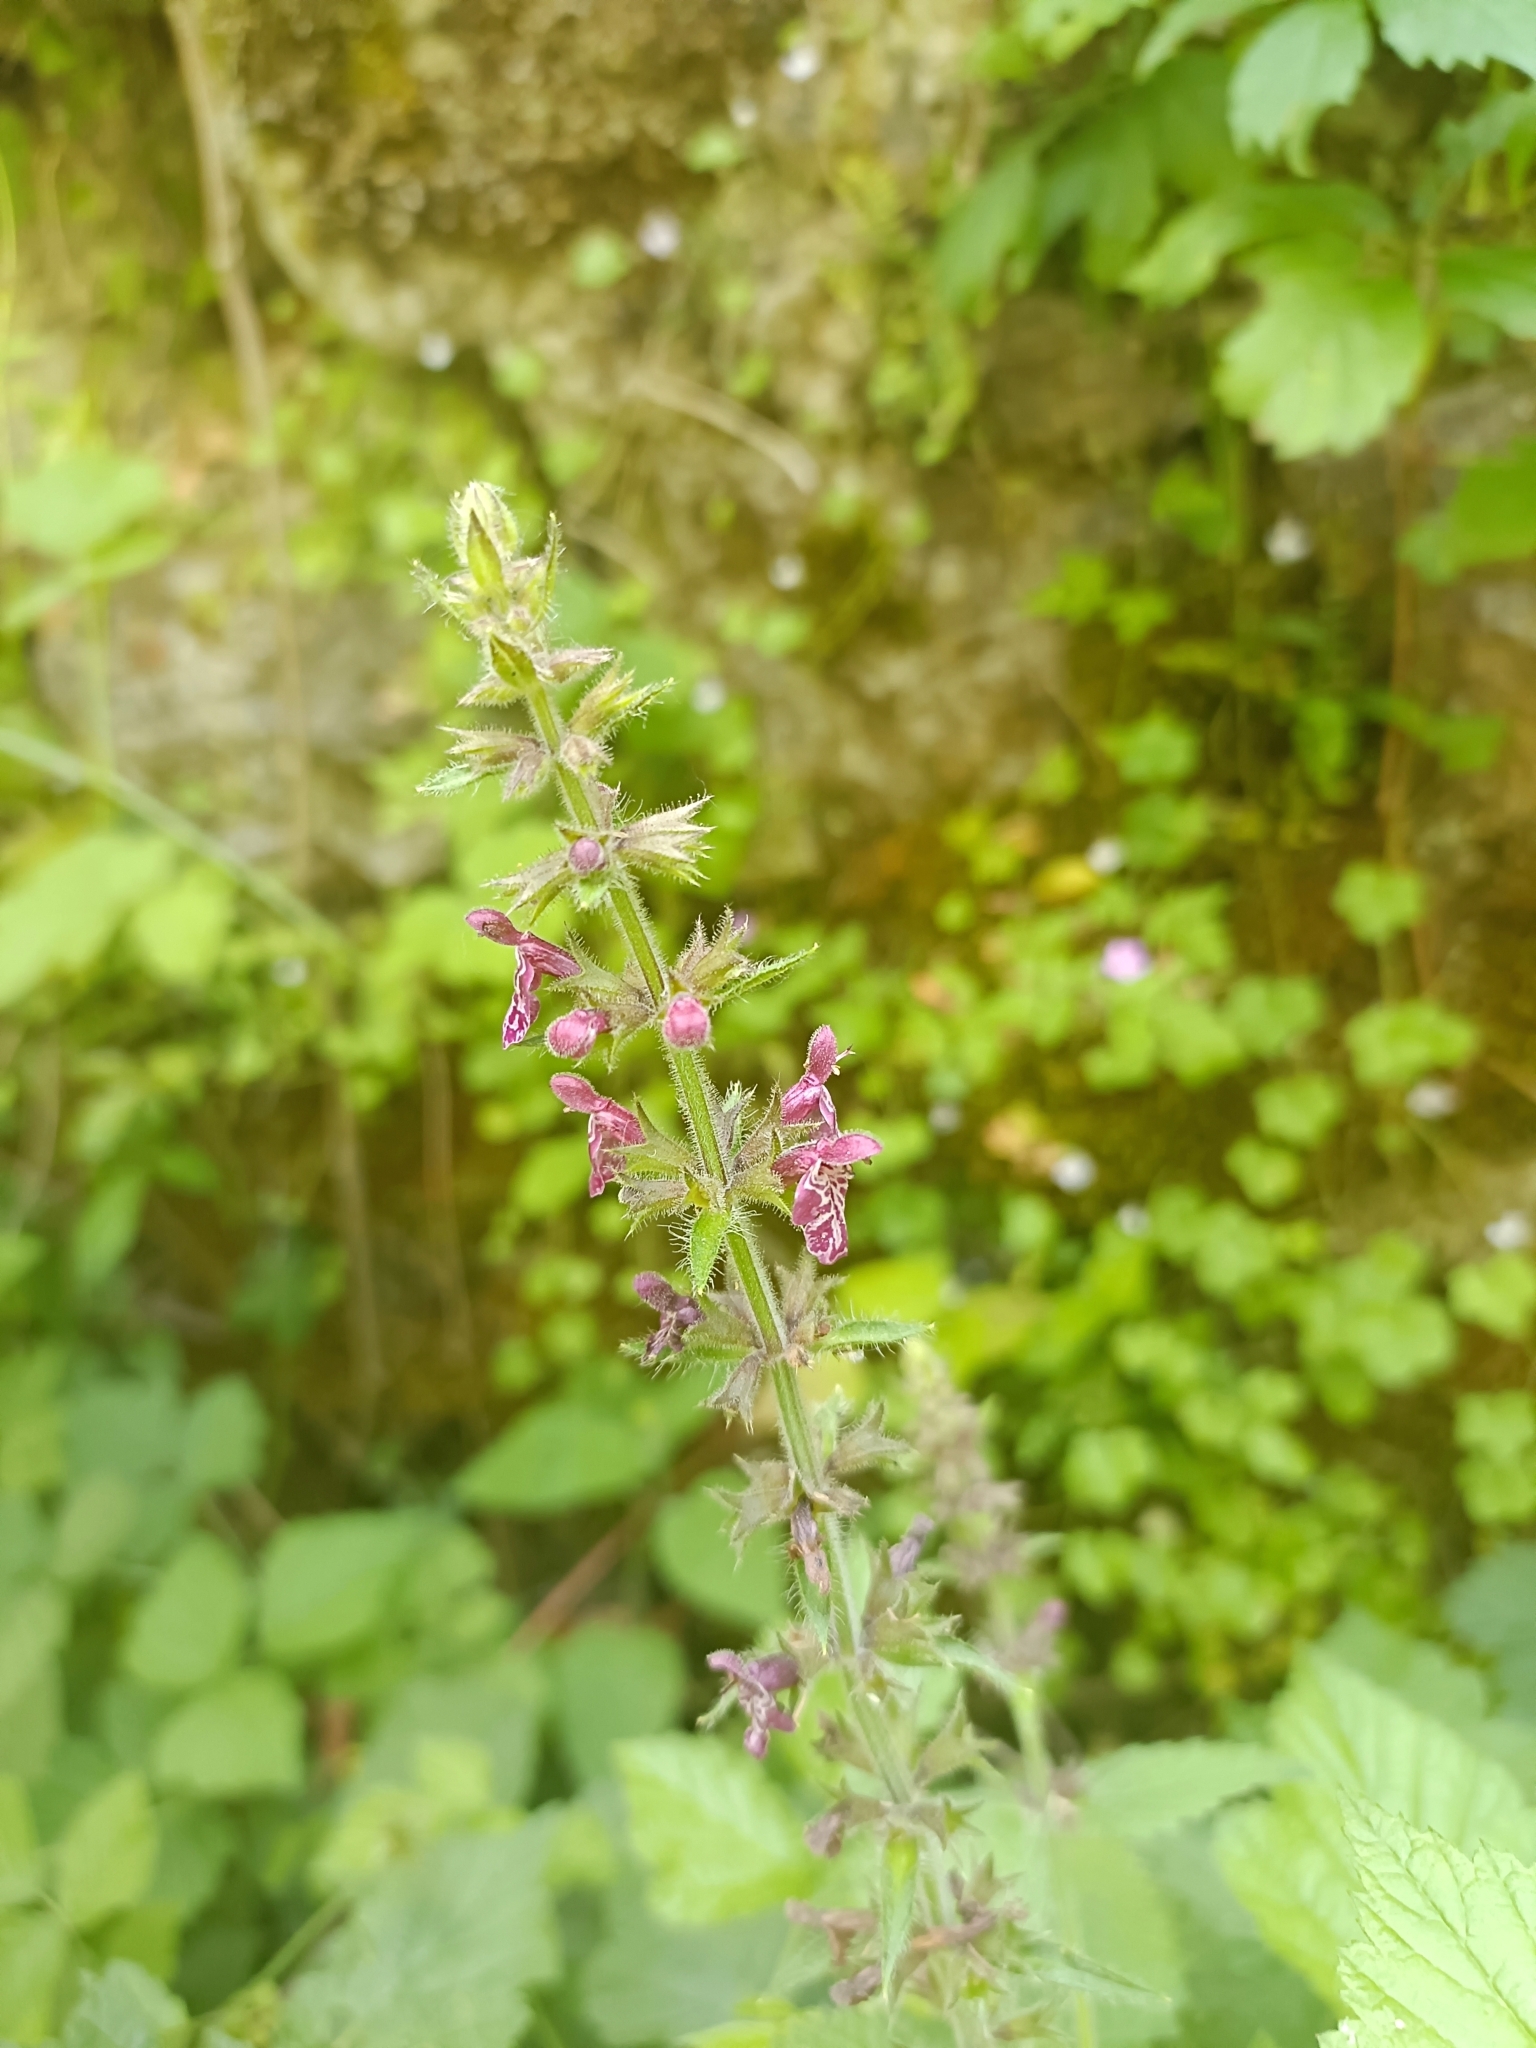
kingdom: Plantae
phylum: Tracheophyta
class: Magnoliopsida
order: Lamiales
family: Lamiaceae
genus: Stachys
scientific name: Stachys sylvatica
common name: Hedge woundwort
